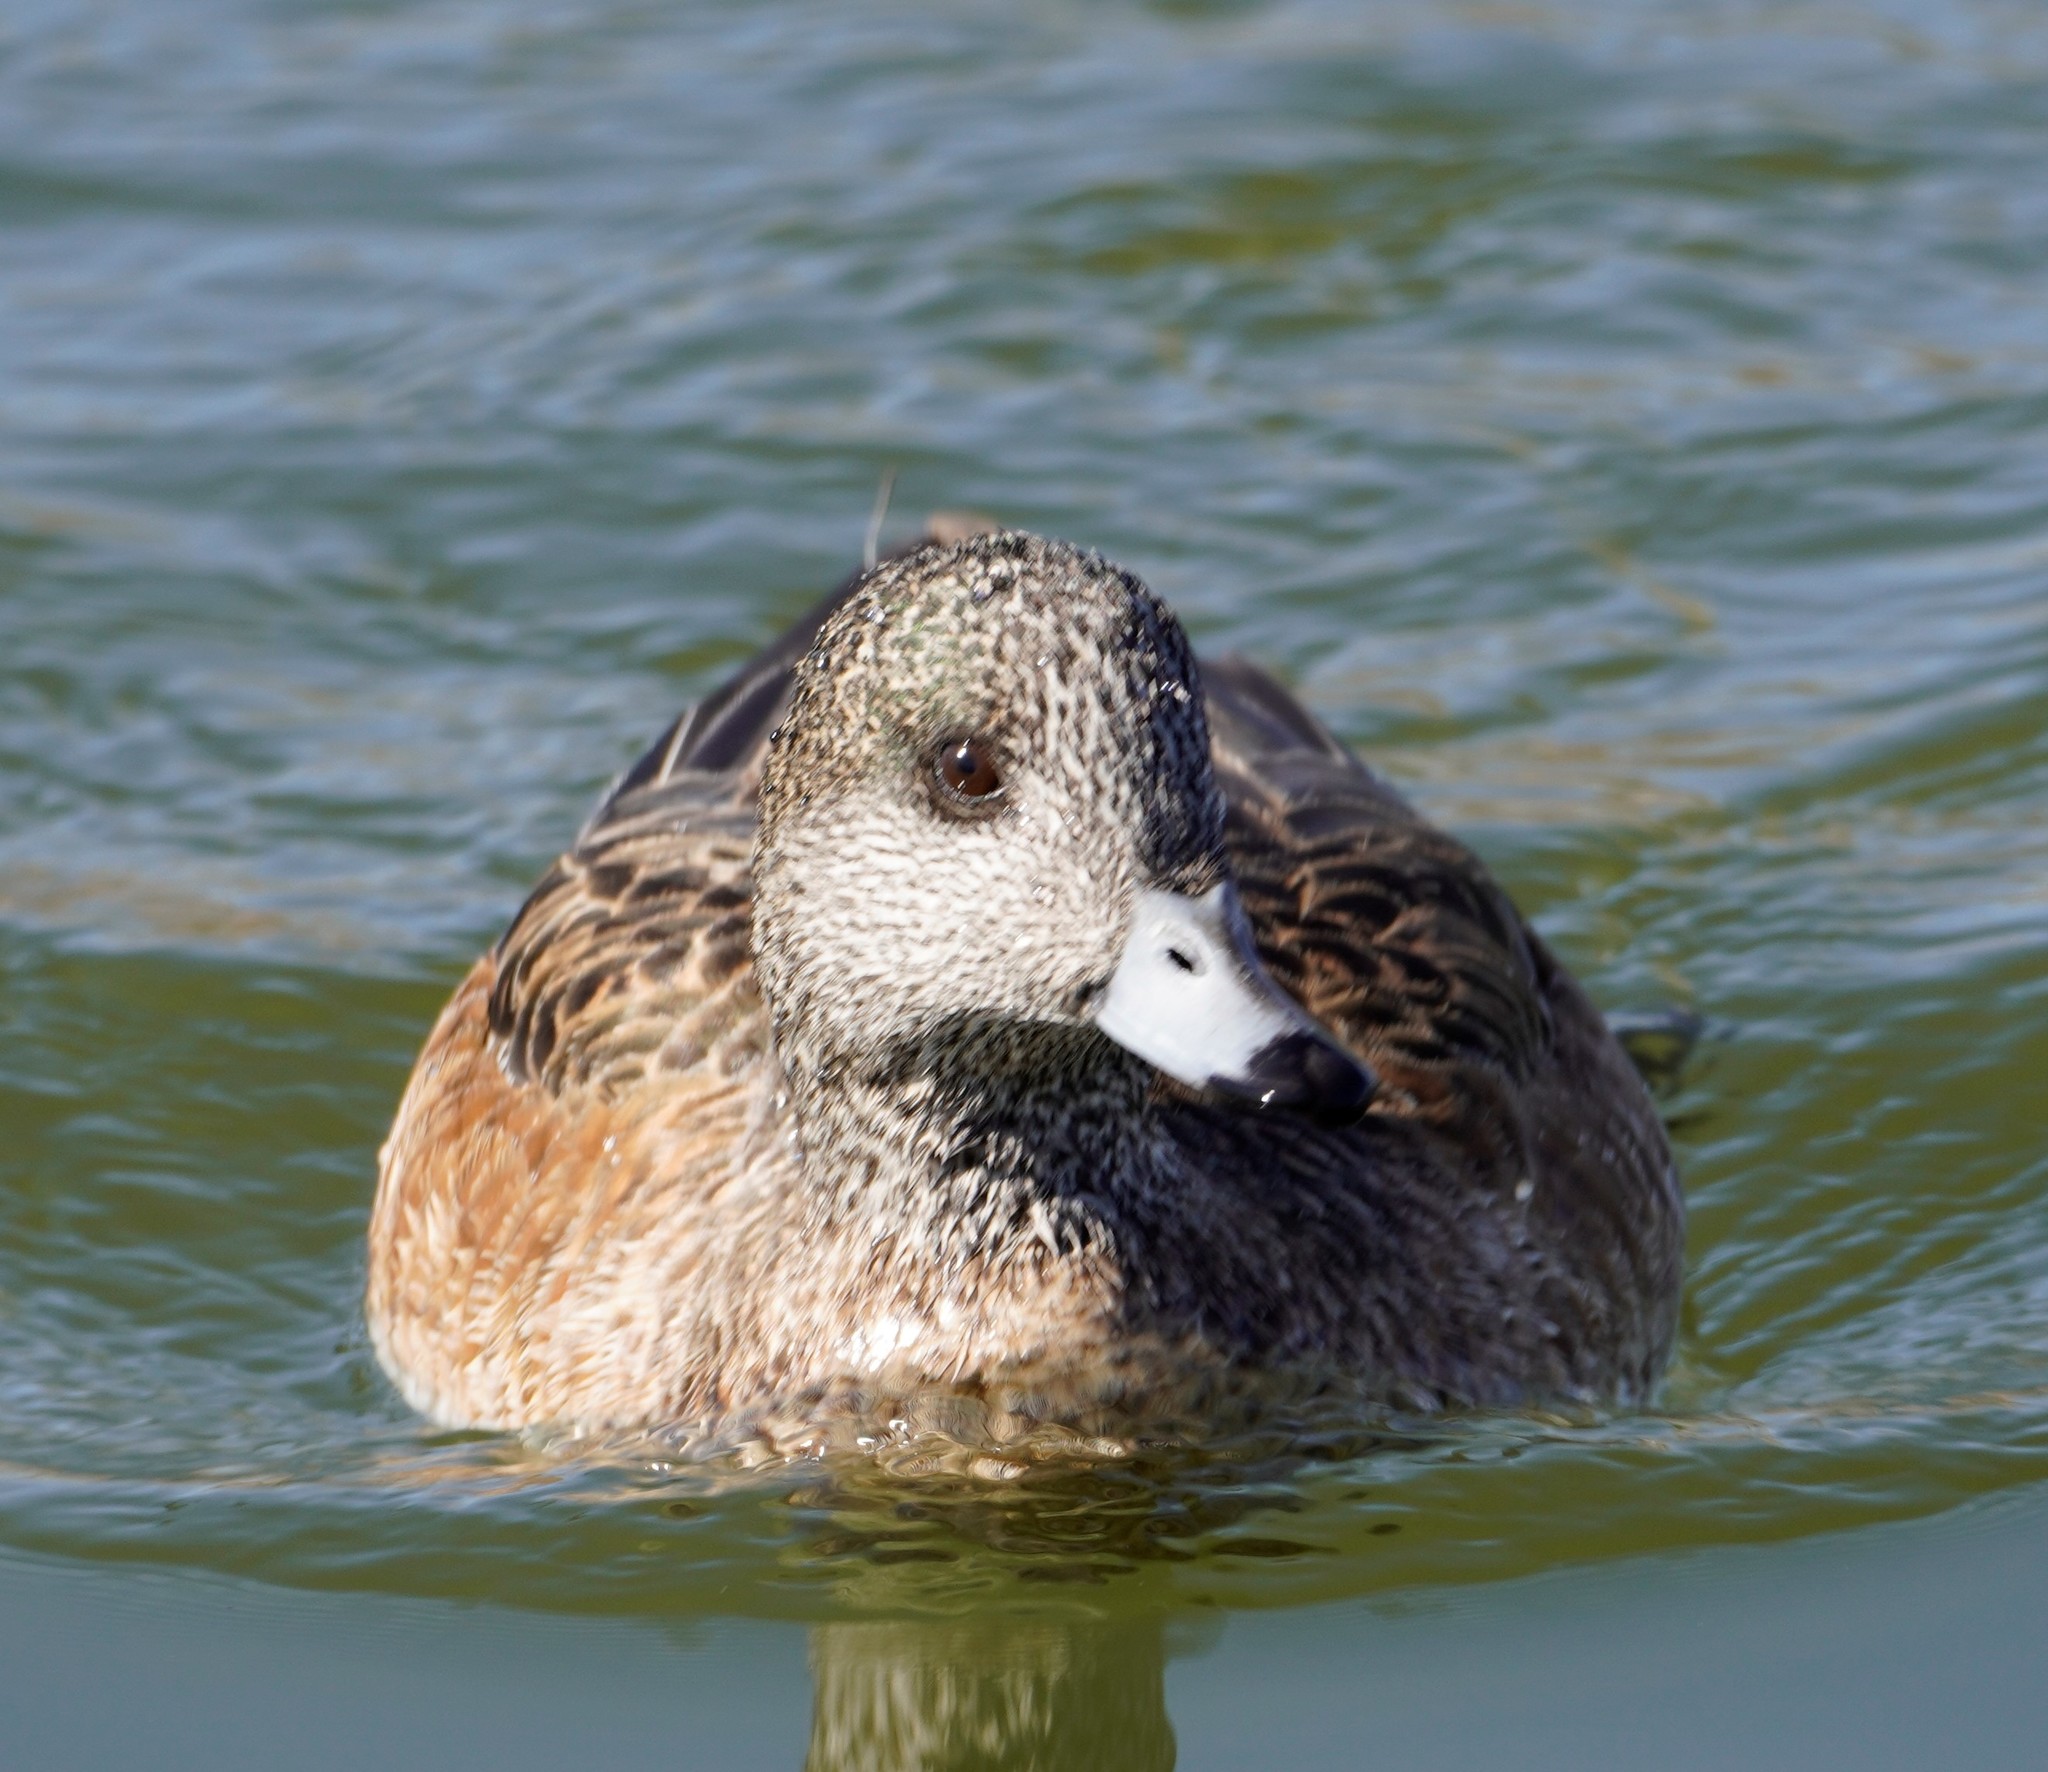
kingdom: Animalia
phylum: Chordata
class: Aves
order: Anseriformes
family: Anatidae
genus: Mareca
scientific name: Mareca americana
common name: American wigeon
